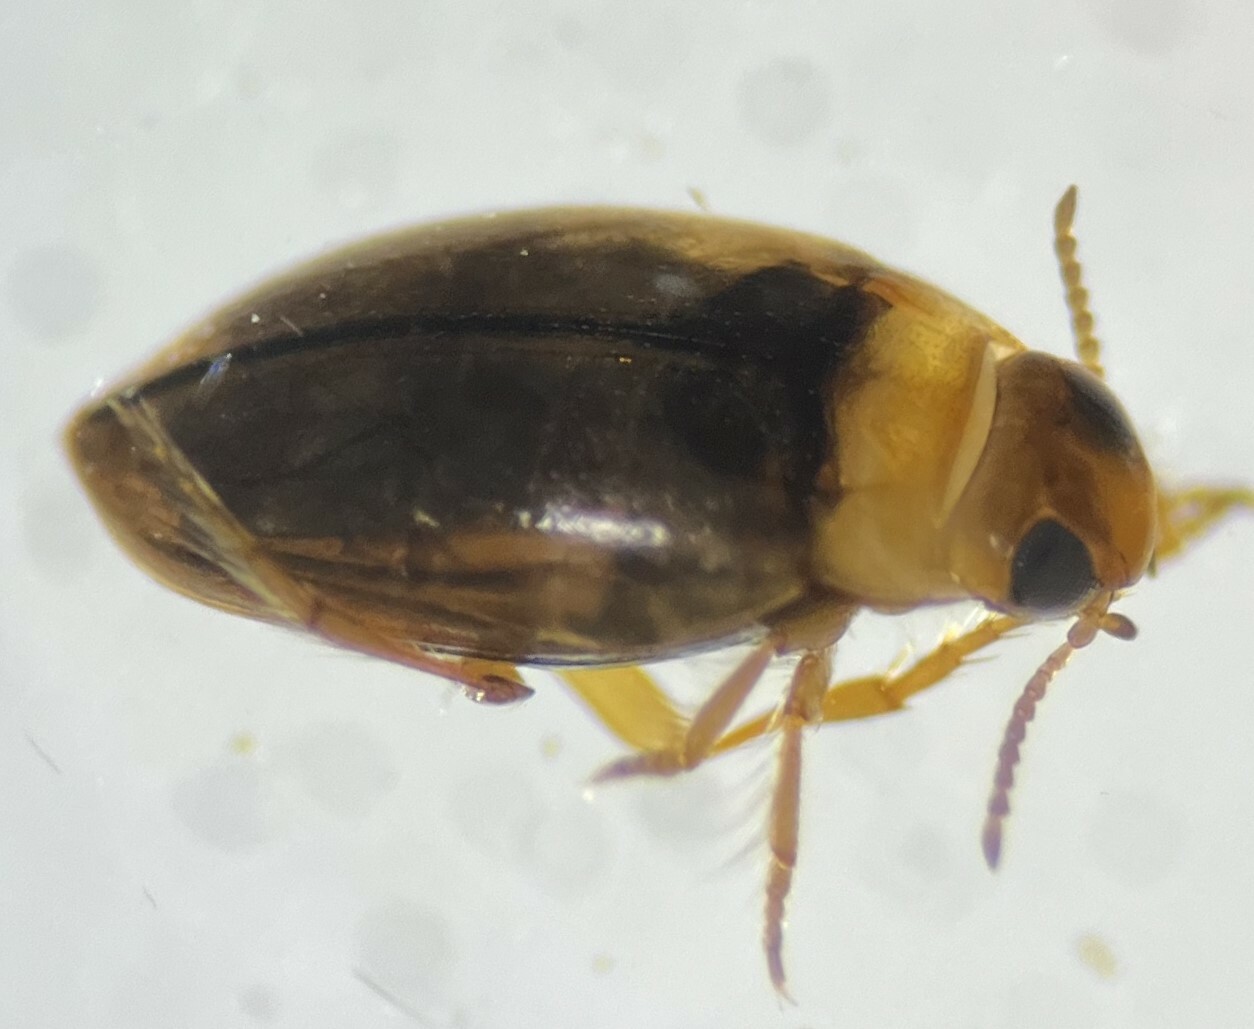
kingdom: Animalia
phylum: Arthropoda
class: Insecta
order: Coleoptera
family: Dytiscidae
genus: Uvarus
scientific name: Uvarus lacustris
